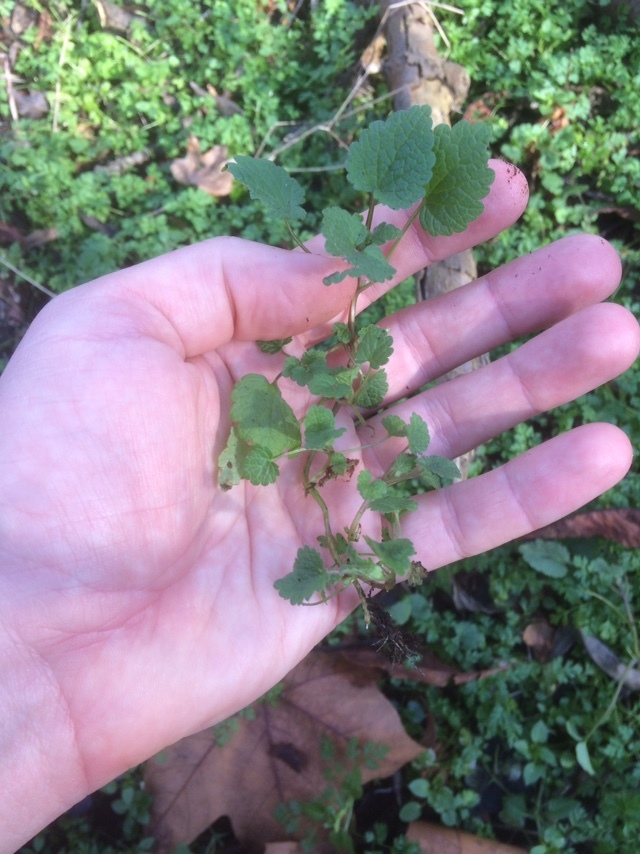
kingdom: Plantae
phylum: Tracheophyta
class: Magnoliopsida
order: Lamiales
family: Lamiaceae
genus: Lamium
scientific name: Lamium purpureum
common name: Red dead-nettle
